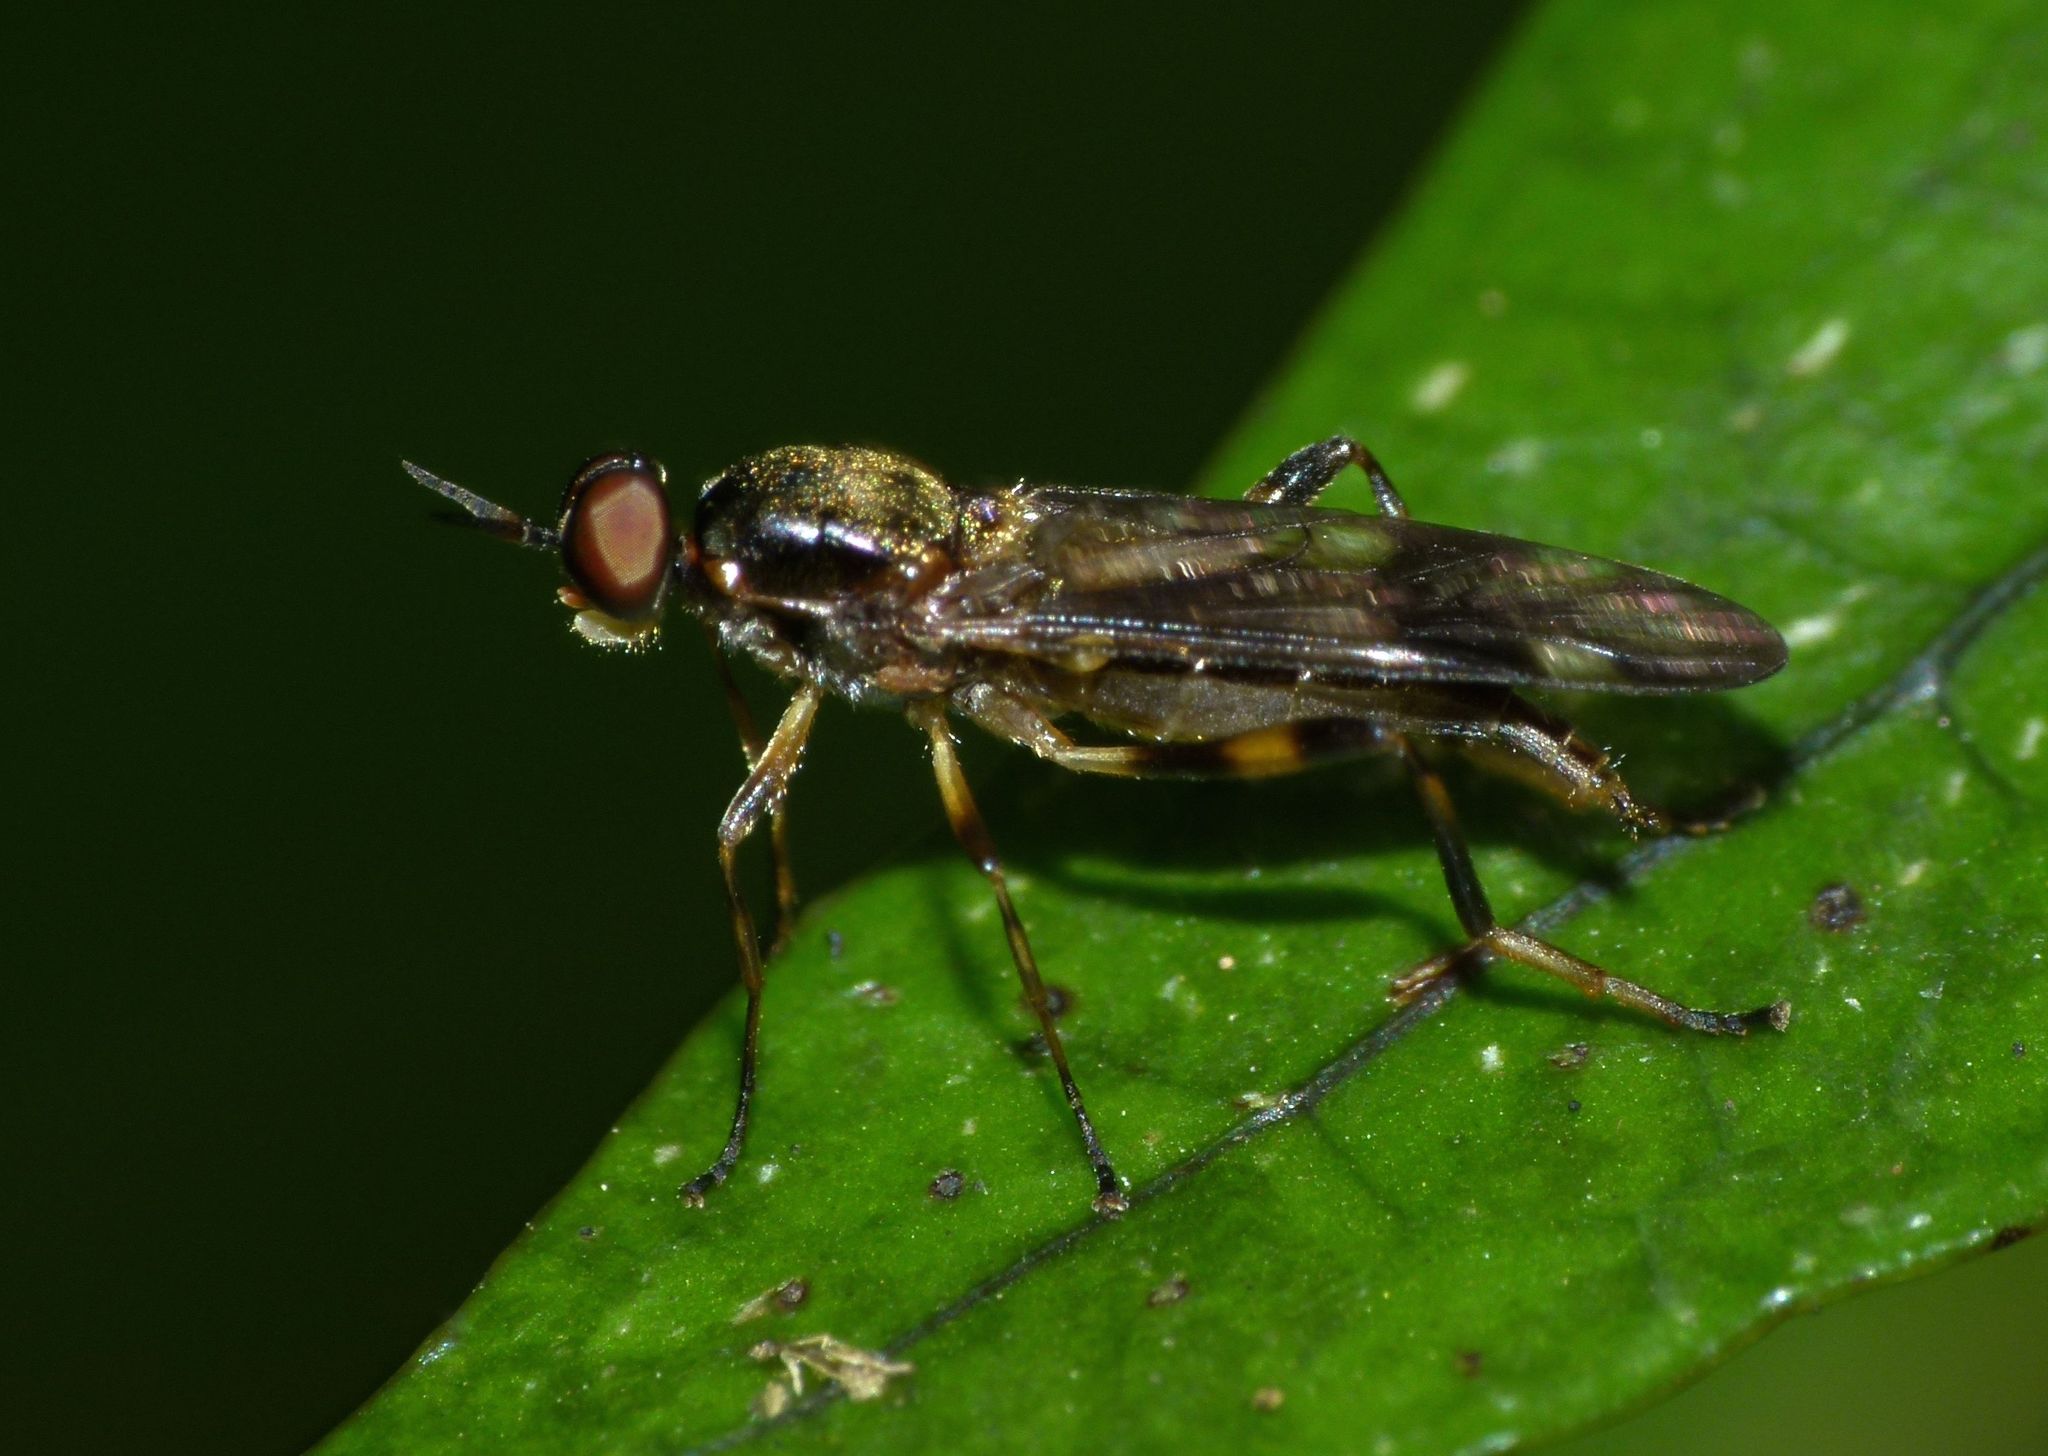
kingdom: Animalia
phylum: Arthropoda
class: Insecta
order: Diptera
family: Stratiomyidae
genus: Benhamyia
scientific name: Benhamyia hoheria
